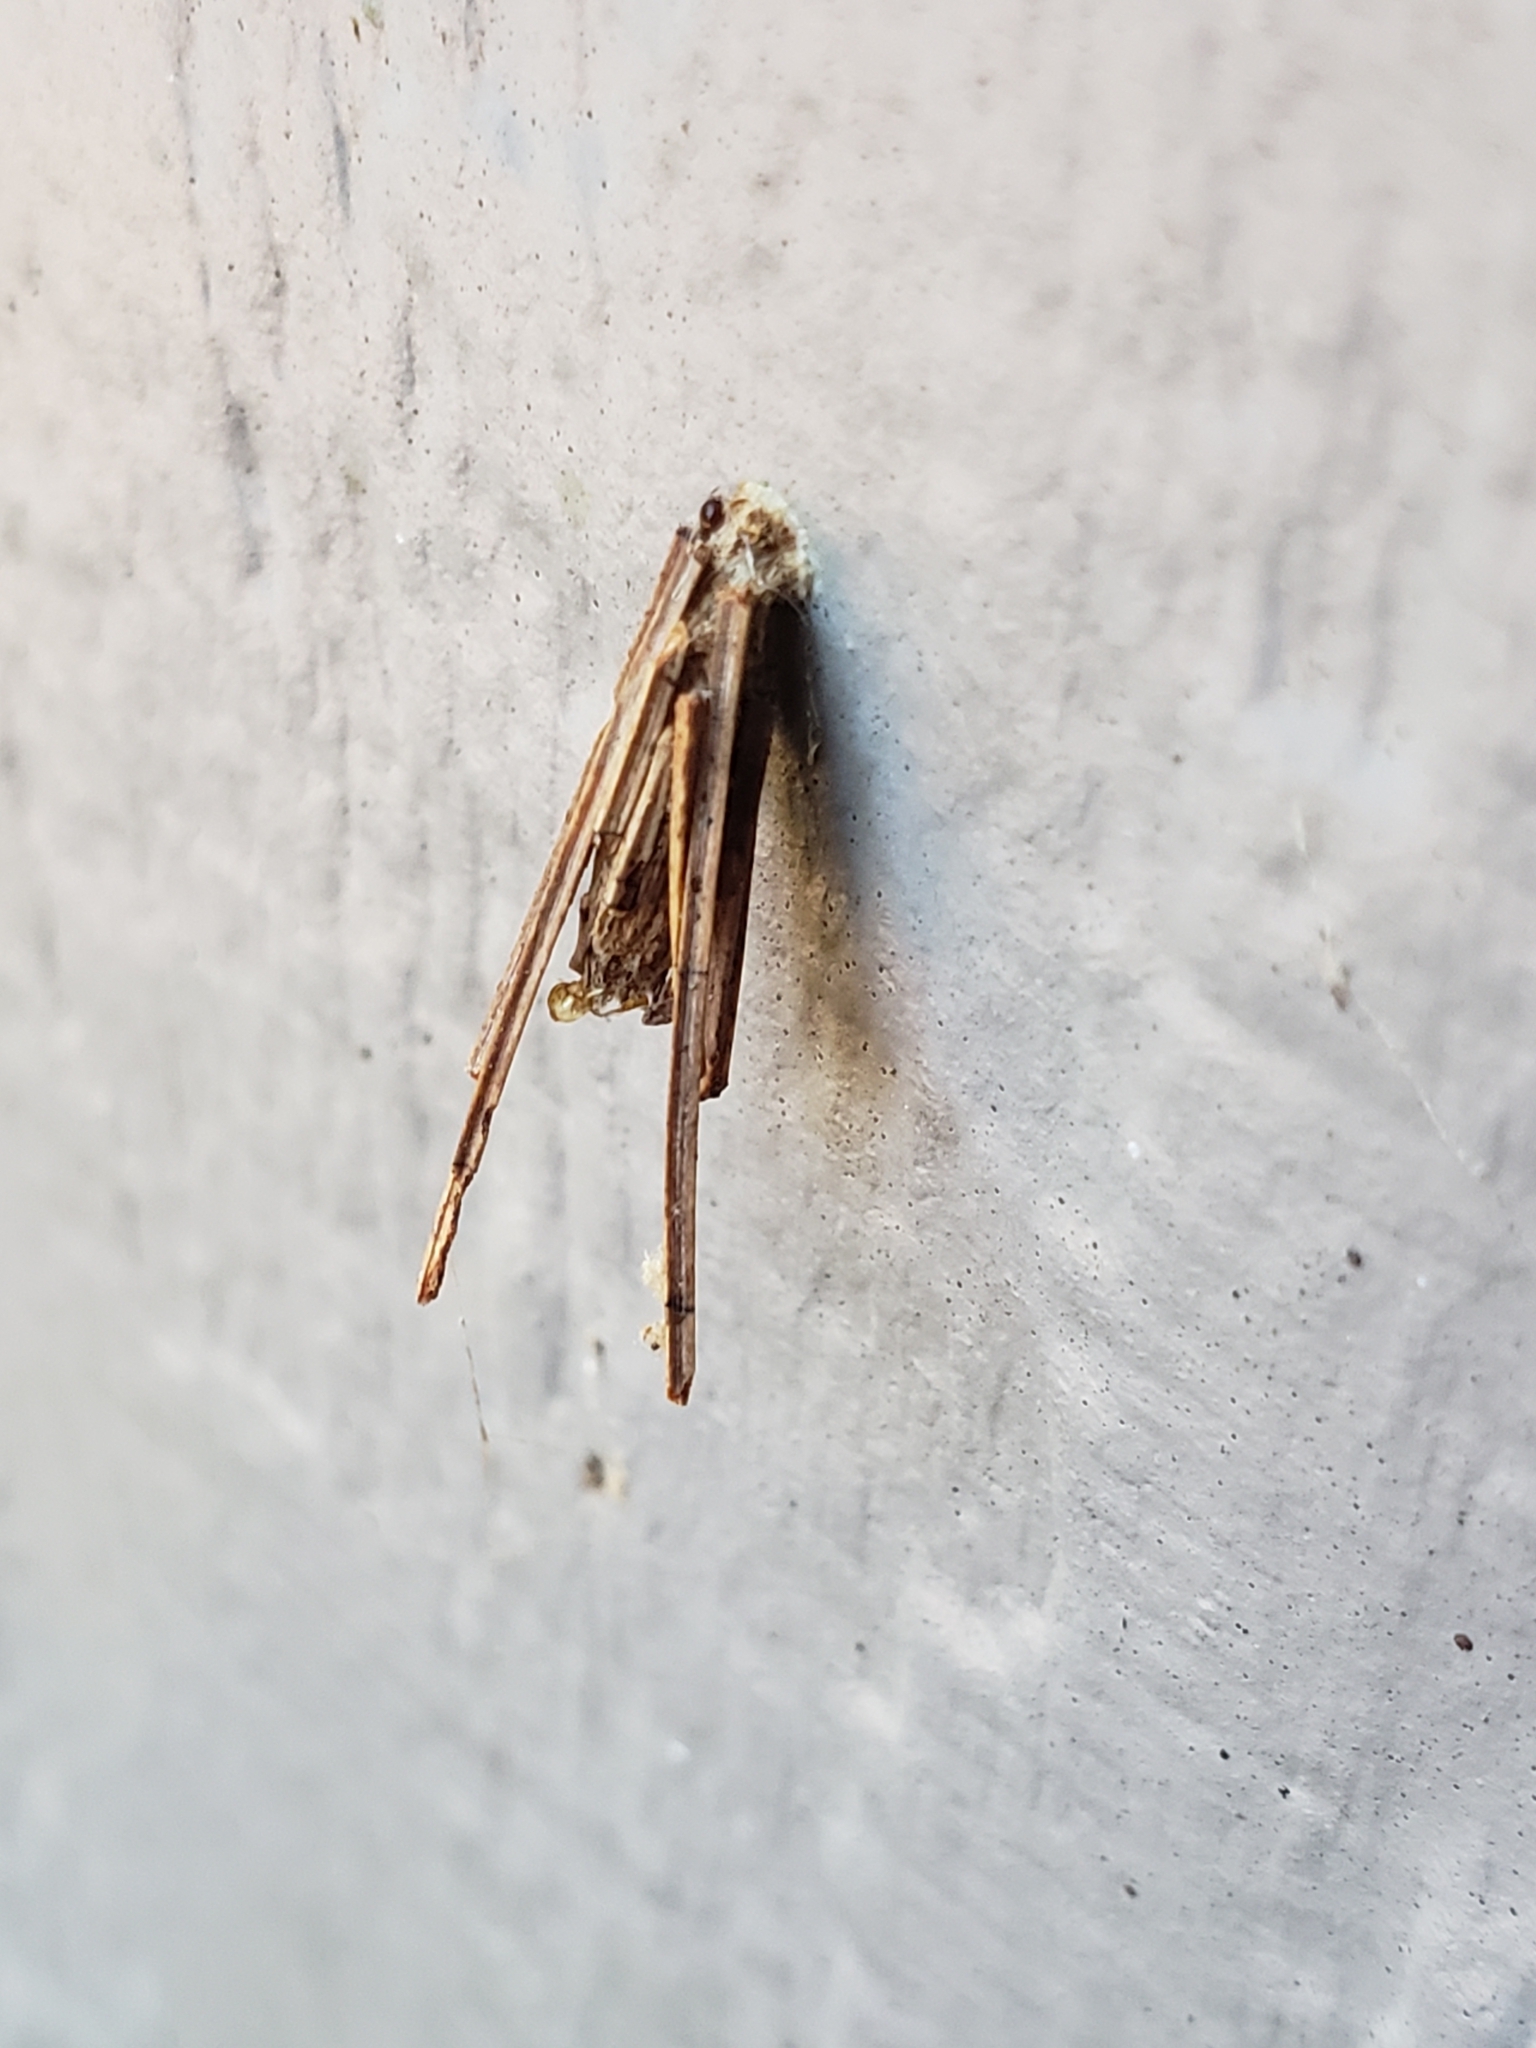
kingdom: Animalia
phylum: Arthropoda
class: Insecta
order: Lepidoptera
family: Psychidae
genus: Psyche
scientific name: Psyche casta
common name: Common sweep
